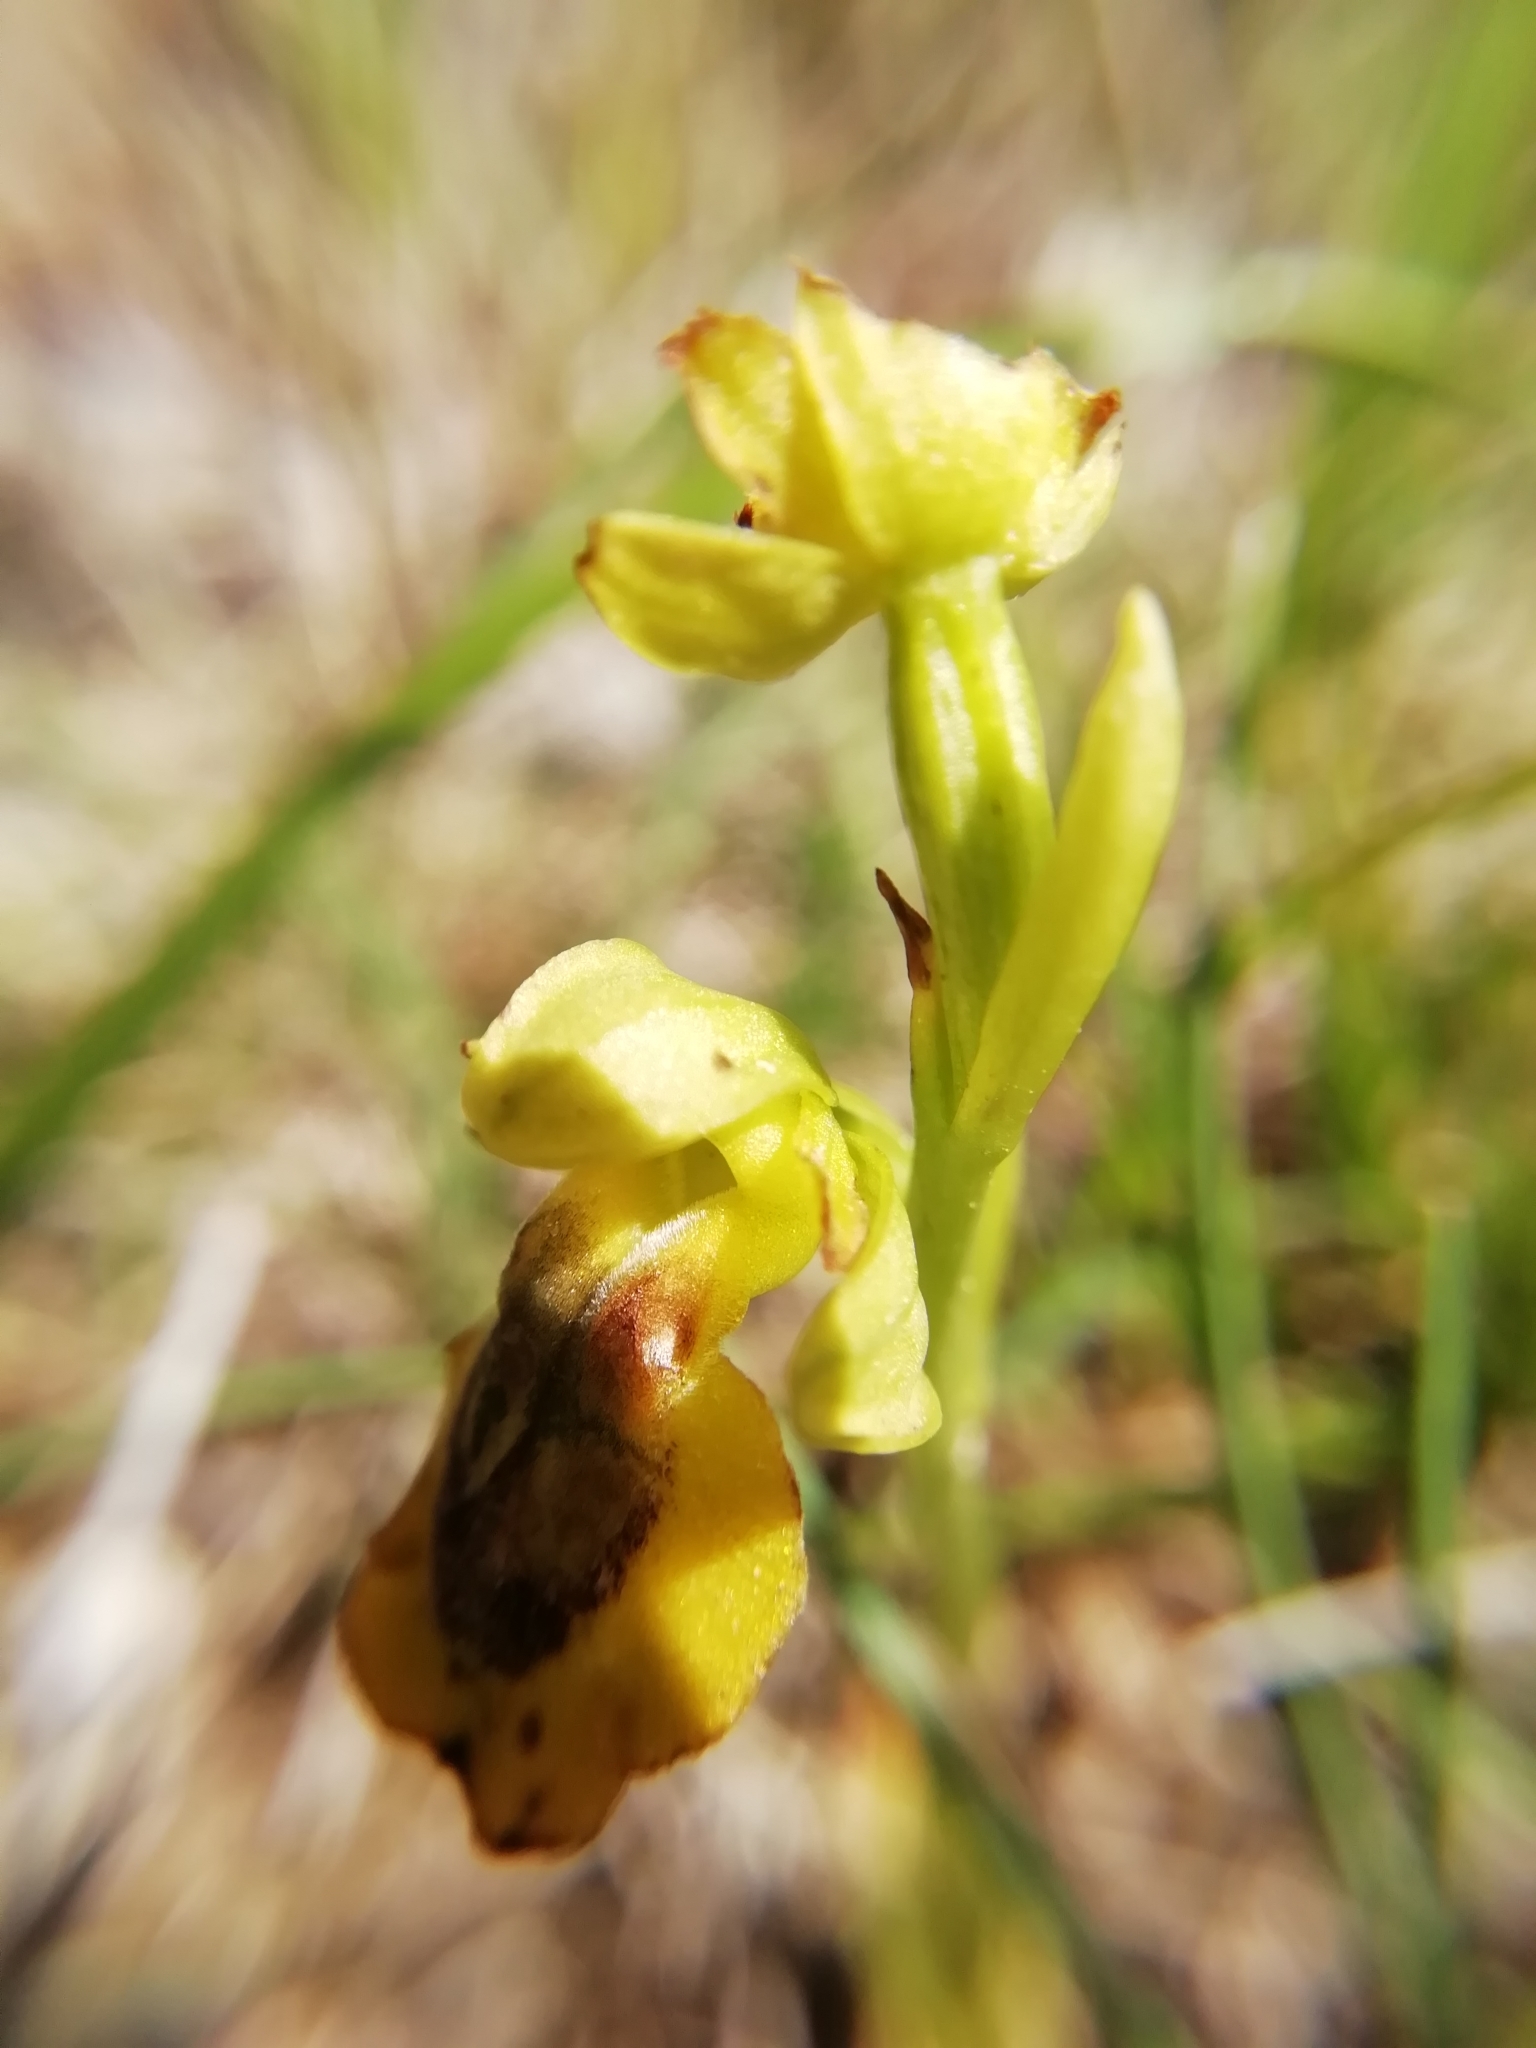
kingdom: Plantae
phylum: Tracheophyta
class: Liliopsida
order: Asparagales
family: Orchidaceae
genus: Ophrys
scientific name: Ophrys lutea
